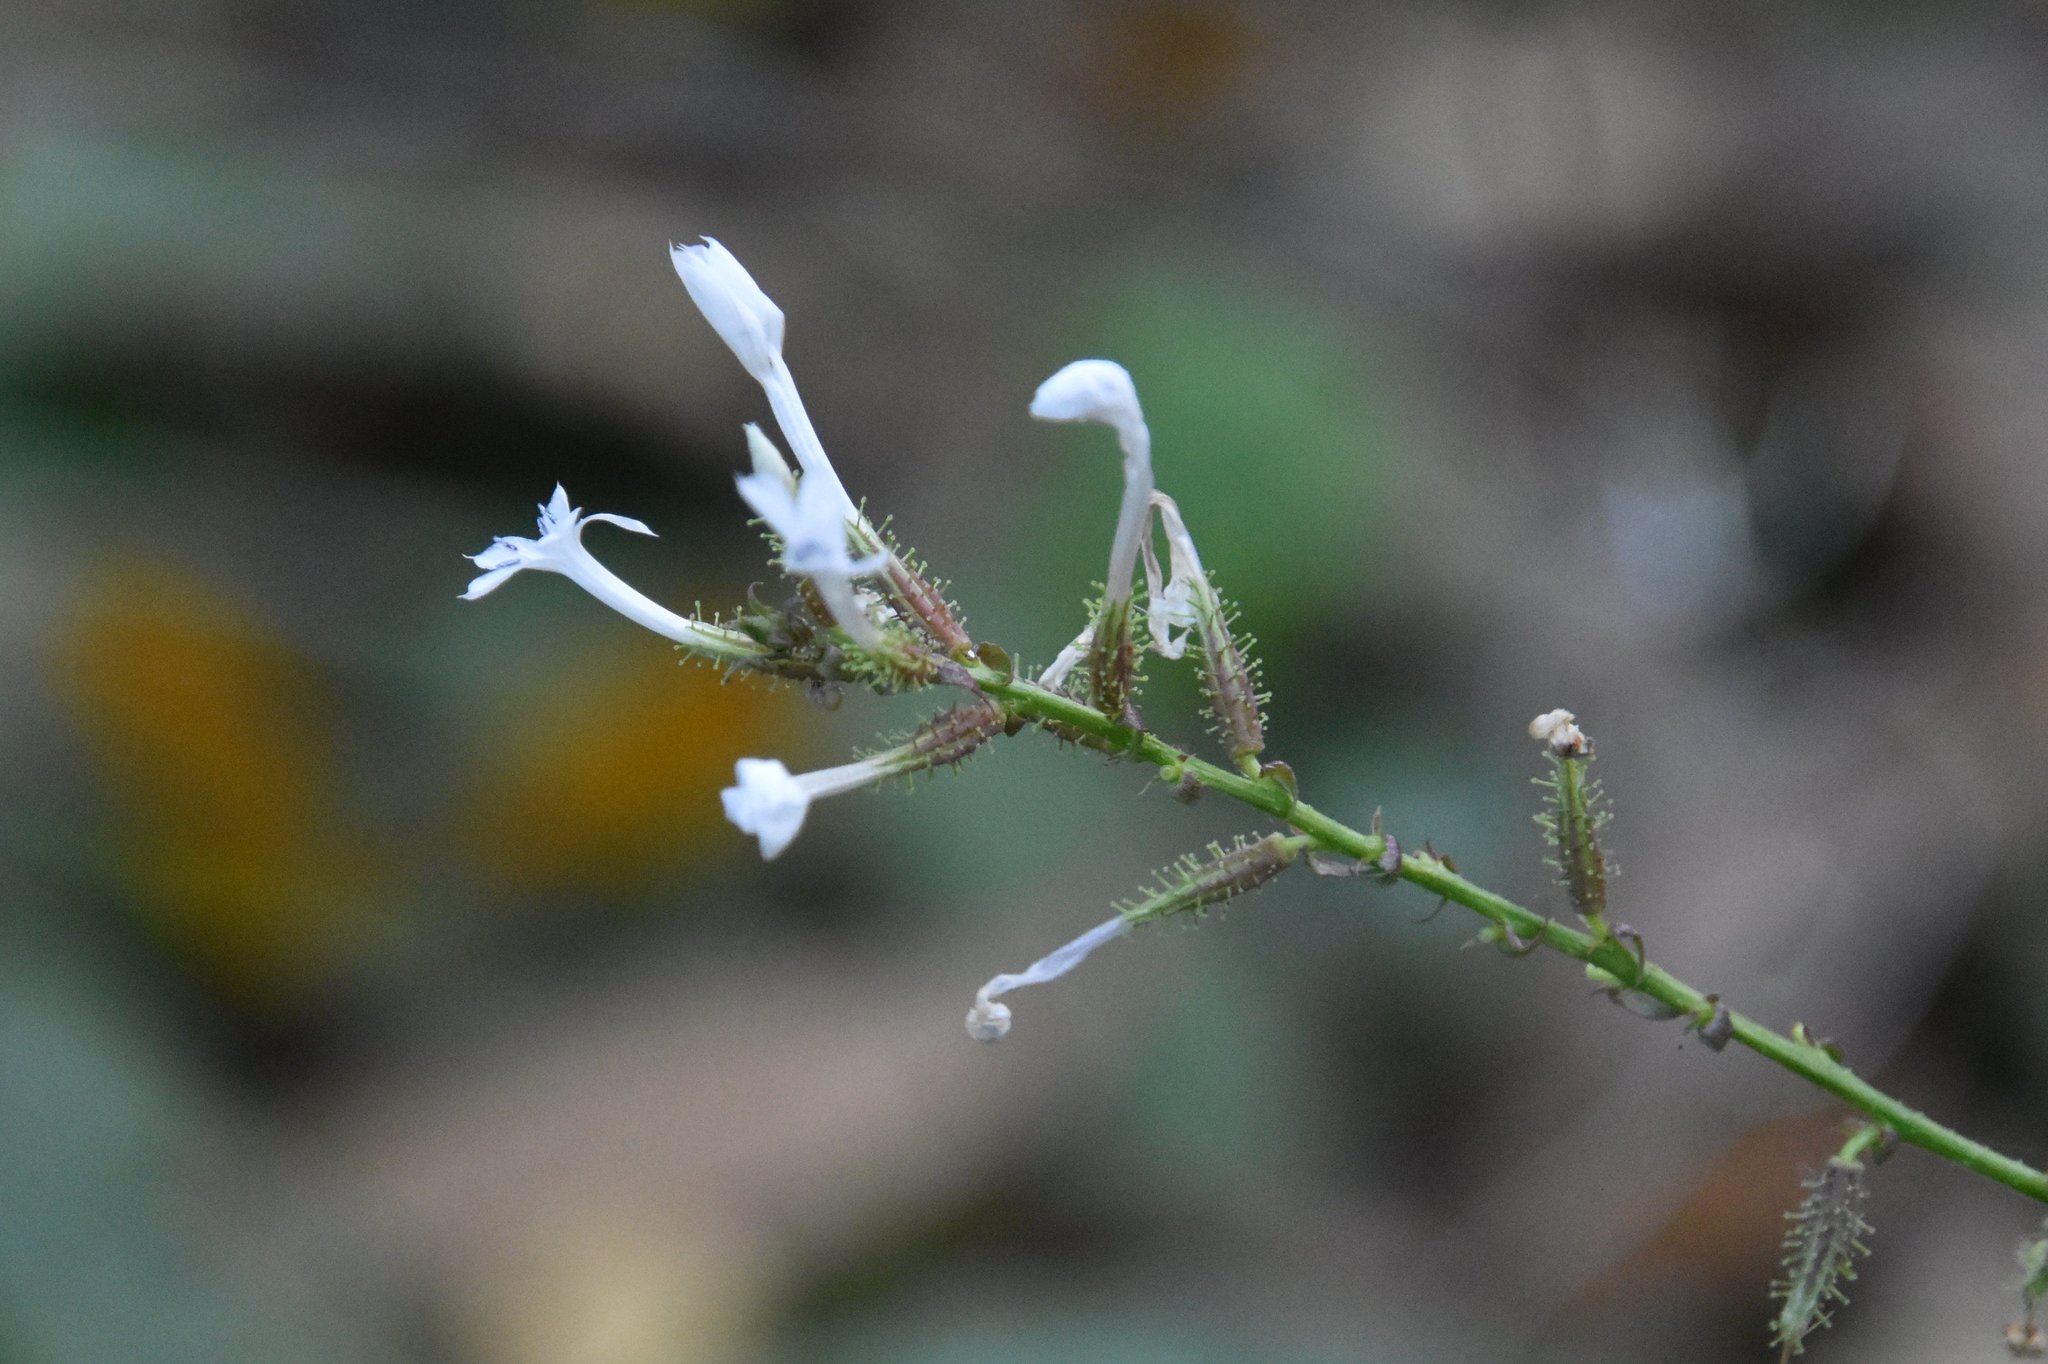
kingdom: Plantae
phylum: Tracheophyta
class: Magnoliopsida
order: Caryophyllales
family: Plumbaginaceae
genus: Plumbago
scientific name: Plumbago zeylanica
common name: Doctorbush
